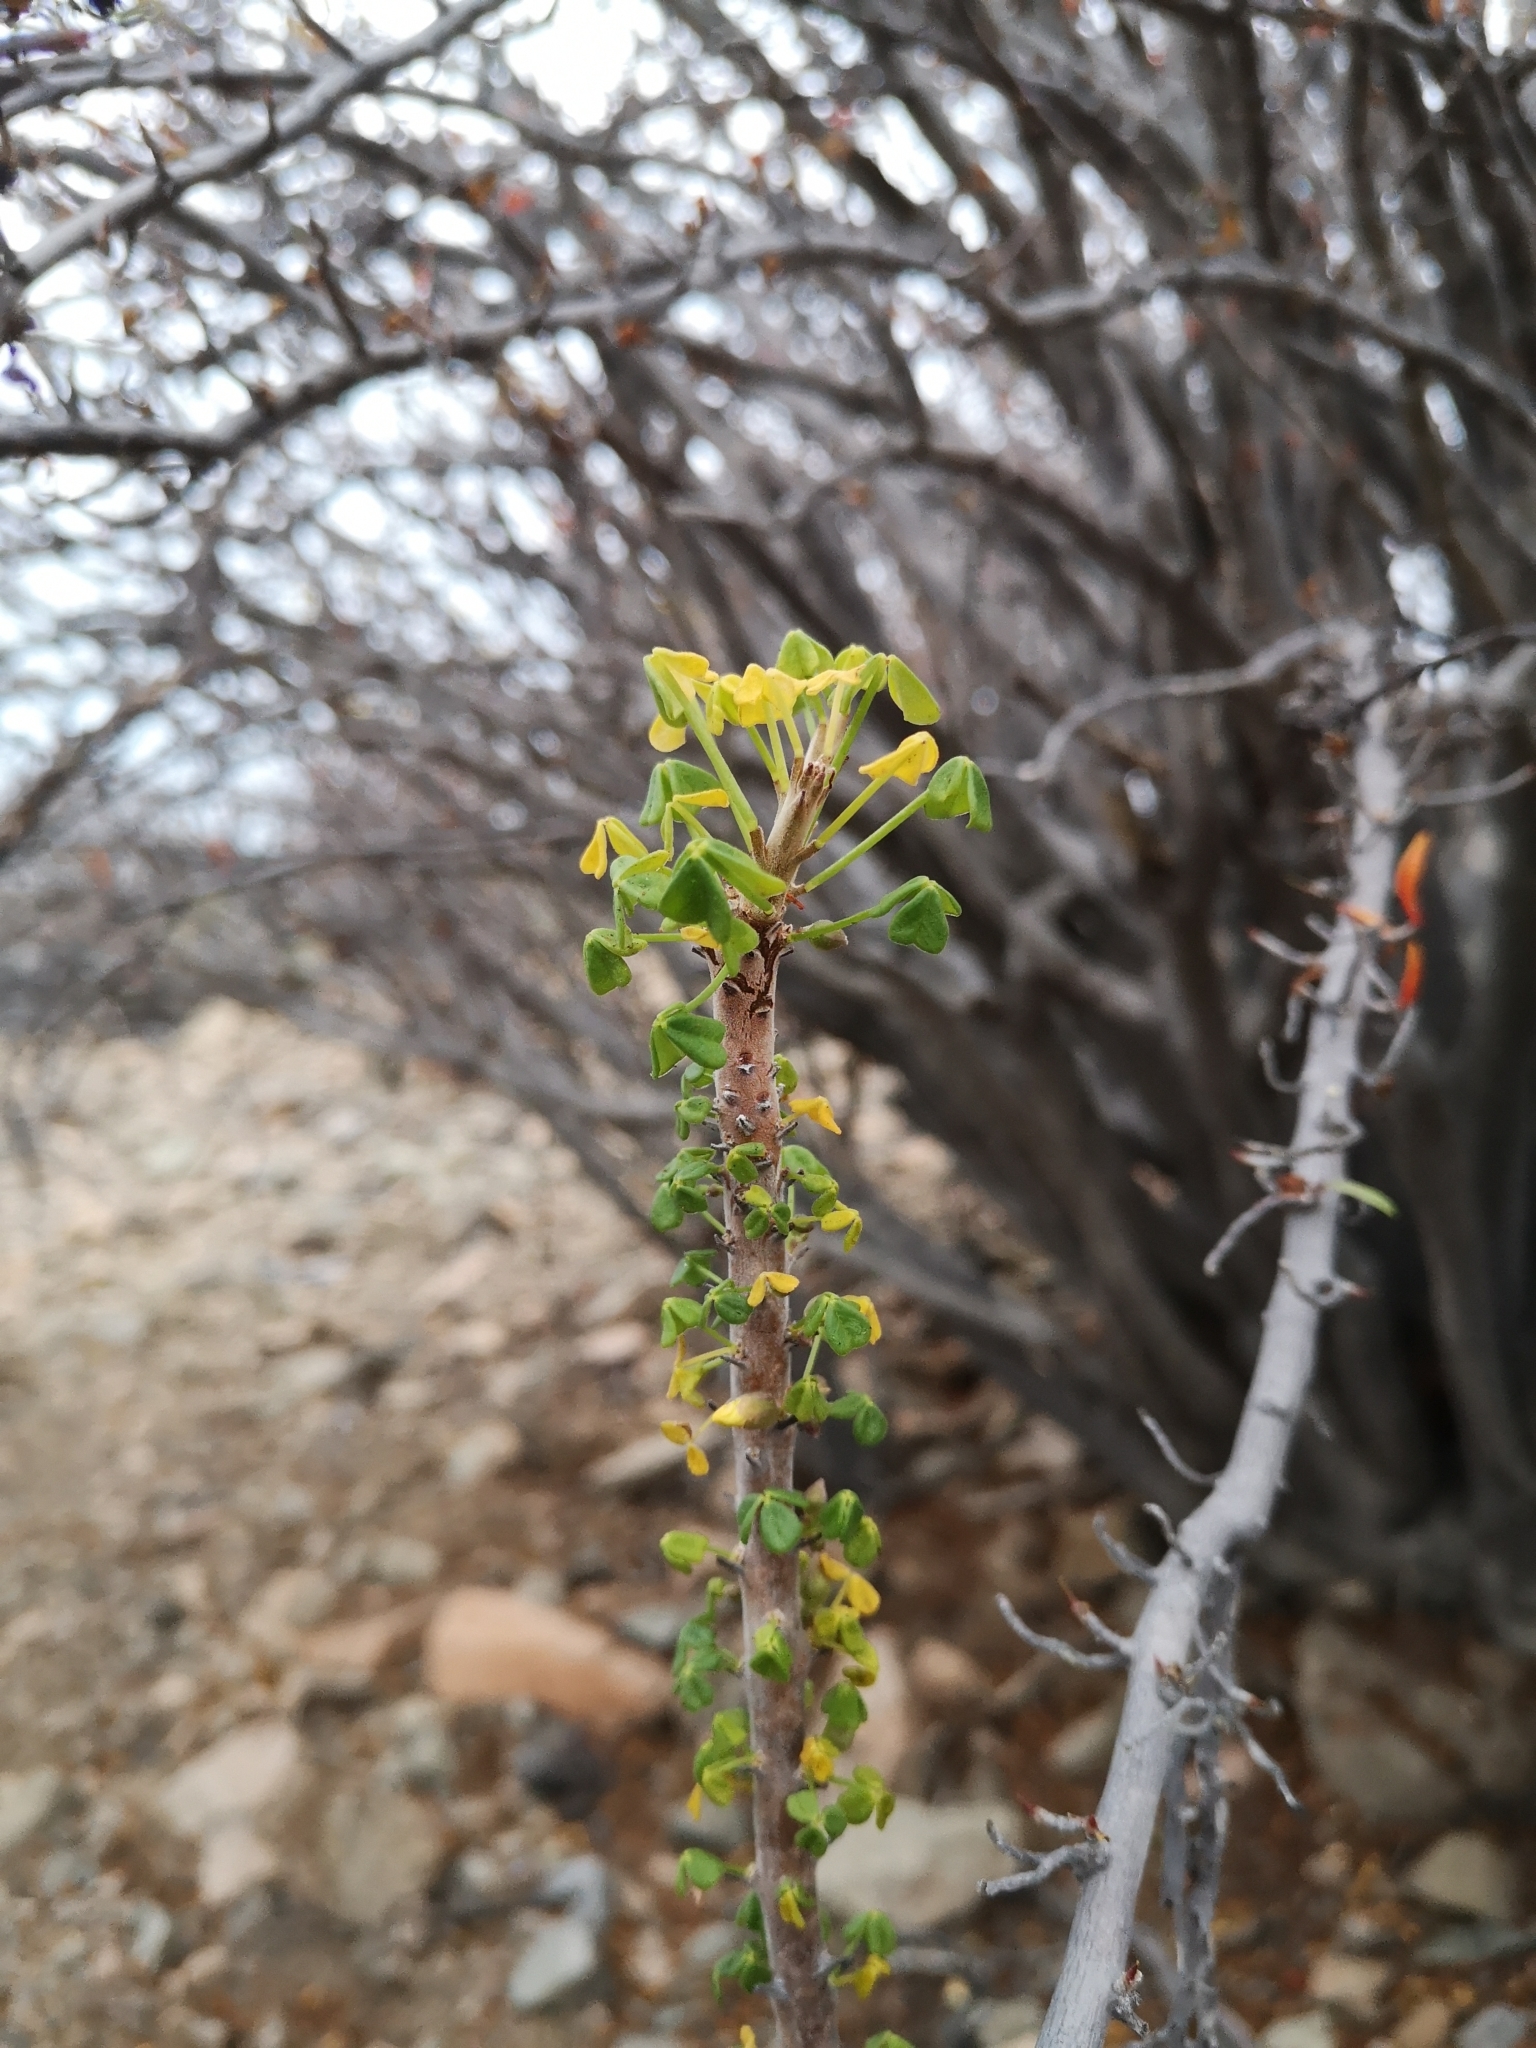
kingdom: Plantae
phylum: Tracheophyta
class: Magnoliopsida
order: Oxalidales
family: Oxalidaceae
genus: Oxalis
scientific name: Oxalis gigantea
